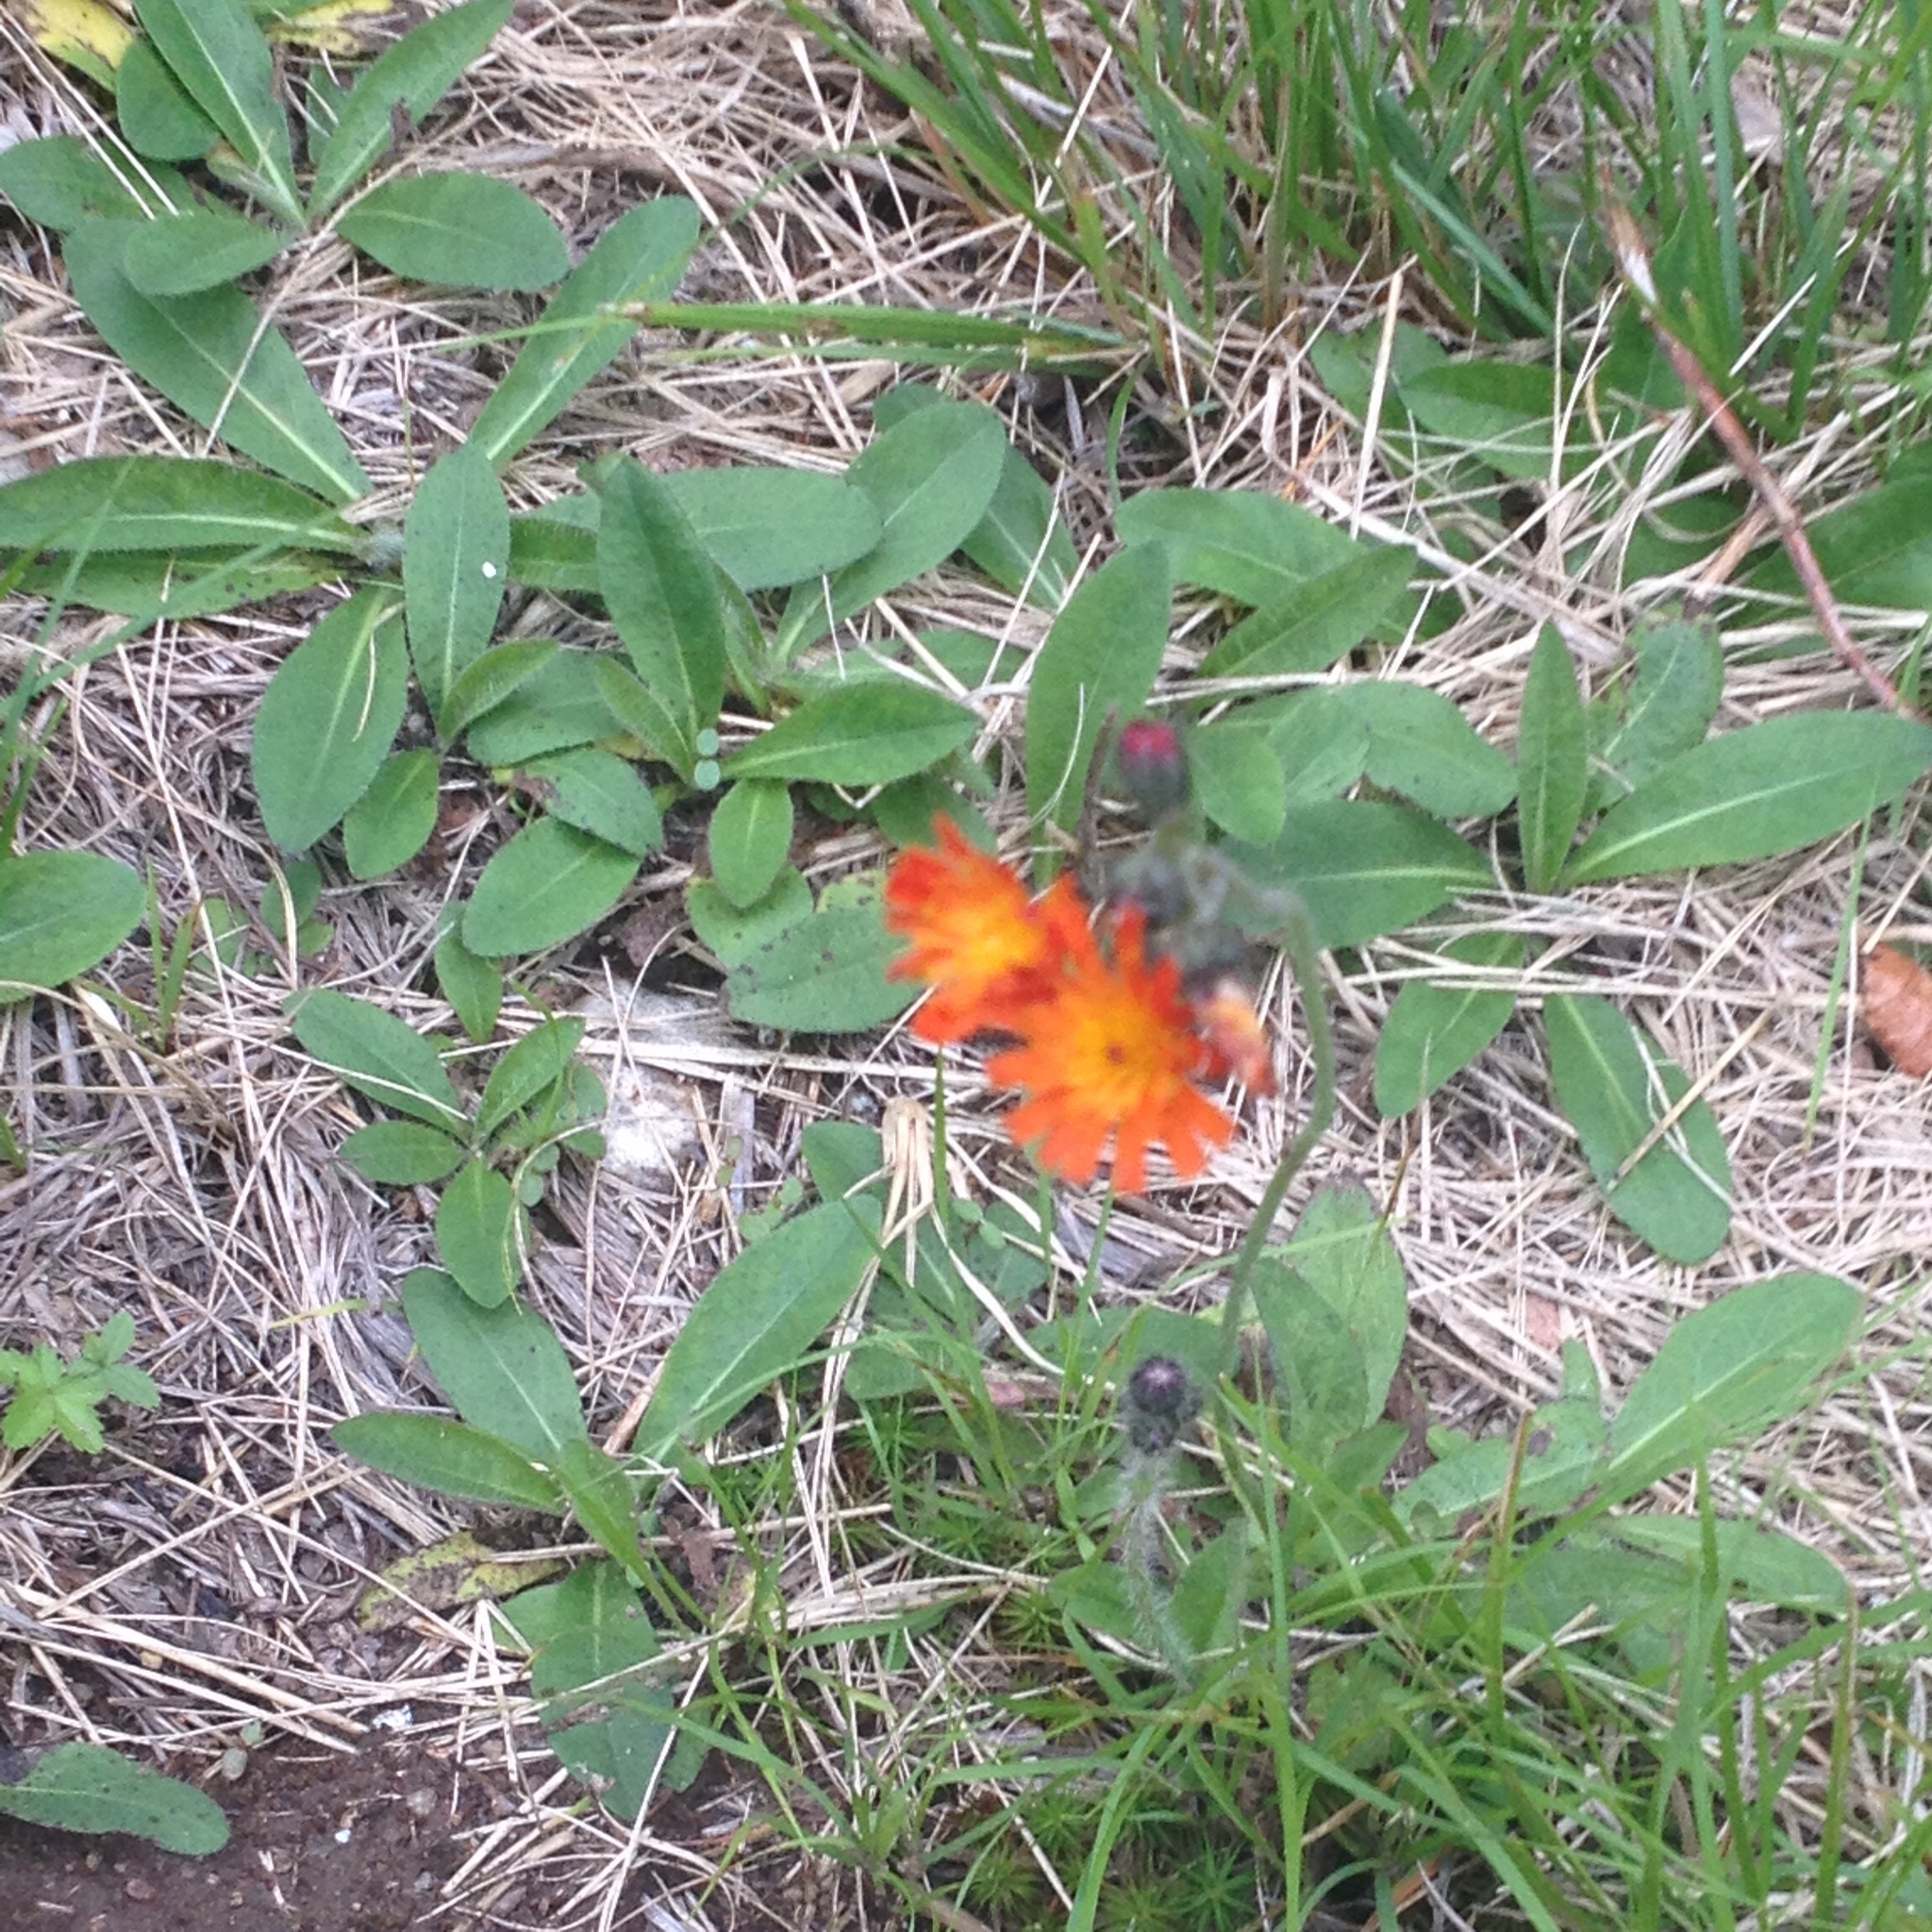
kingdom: Plantae
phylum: Tracheophyta
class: Magnoliopsida
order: Asterales
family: Asteraceae
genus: Pilosella
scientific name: Pilosella aurantiaca
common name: Fox-and-cubs
